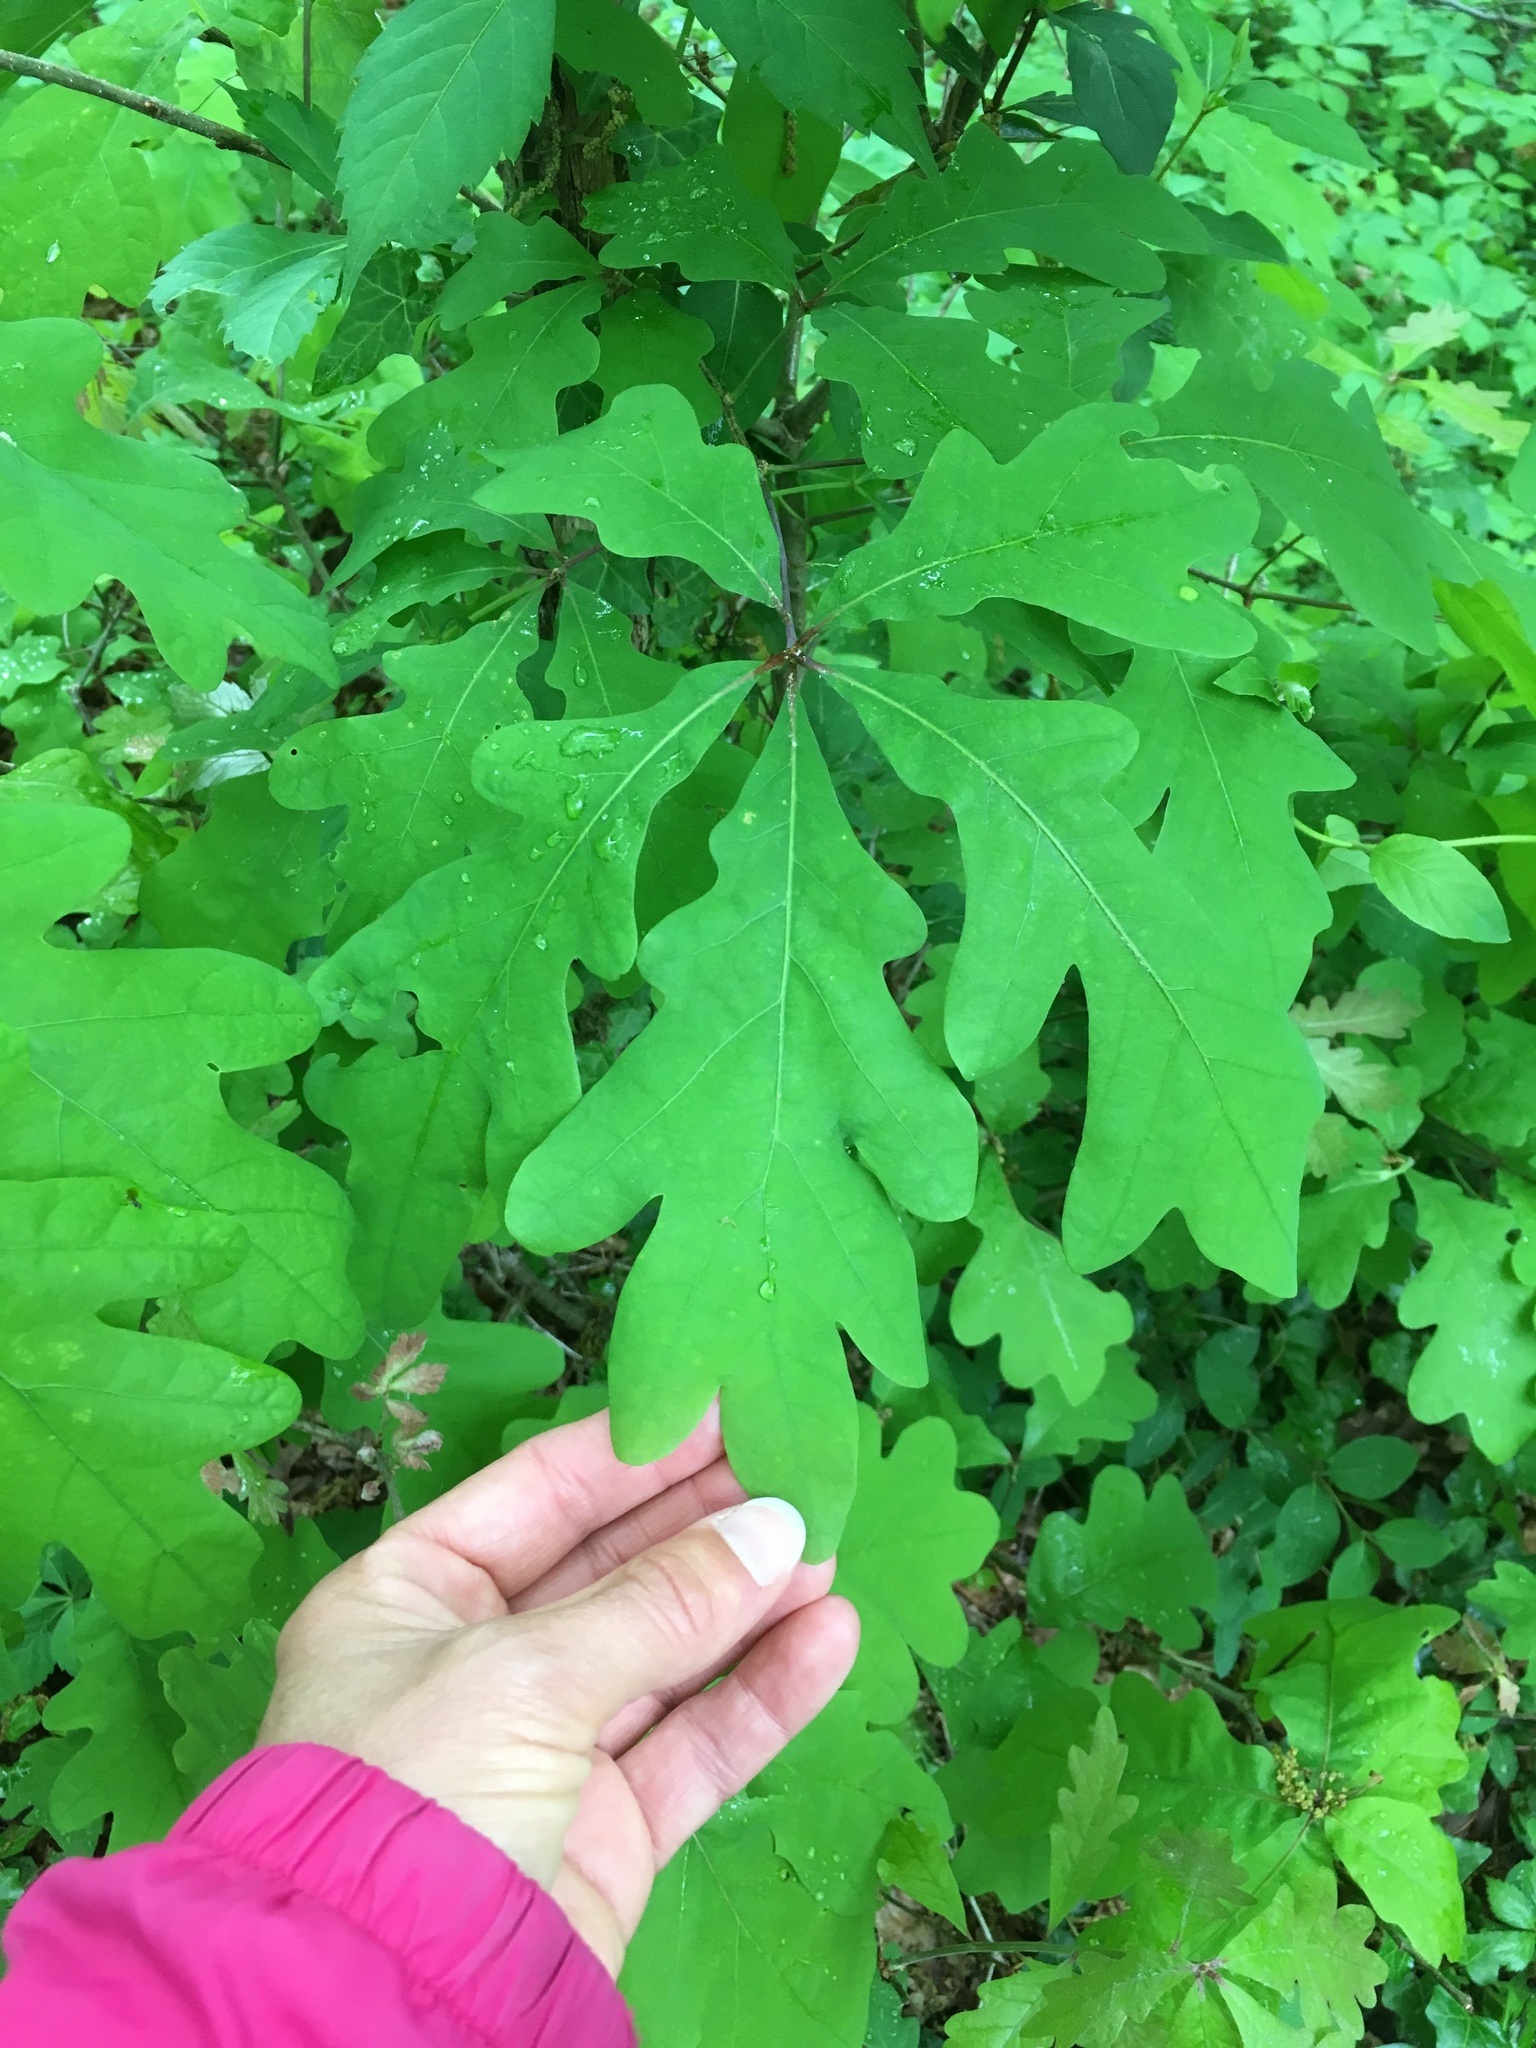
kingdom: Plantae
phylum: Tracheophyta
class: Magnoliopsida
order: Fagales
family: Fagaceae
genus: Quercus
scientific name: Quercus alba
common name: White oak
